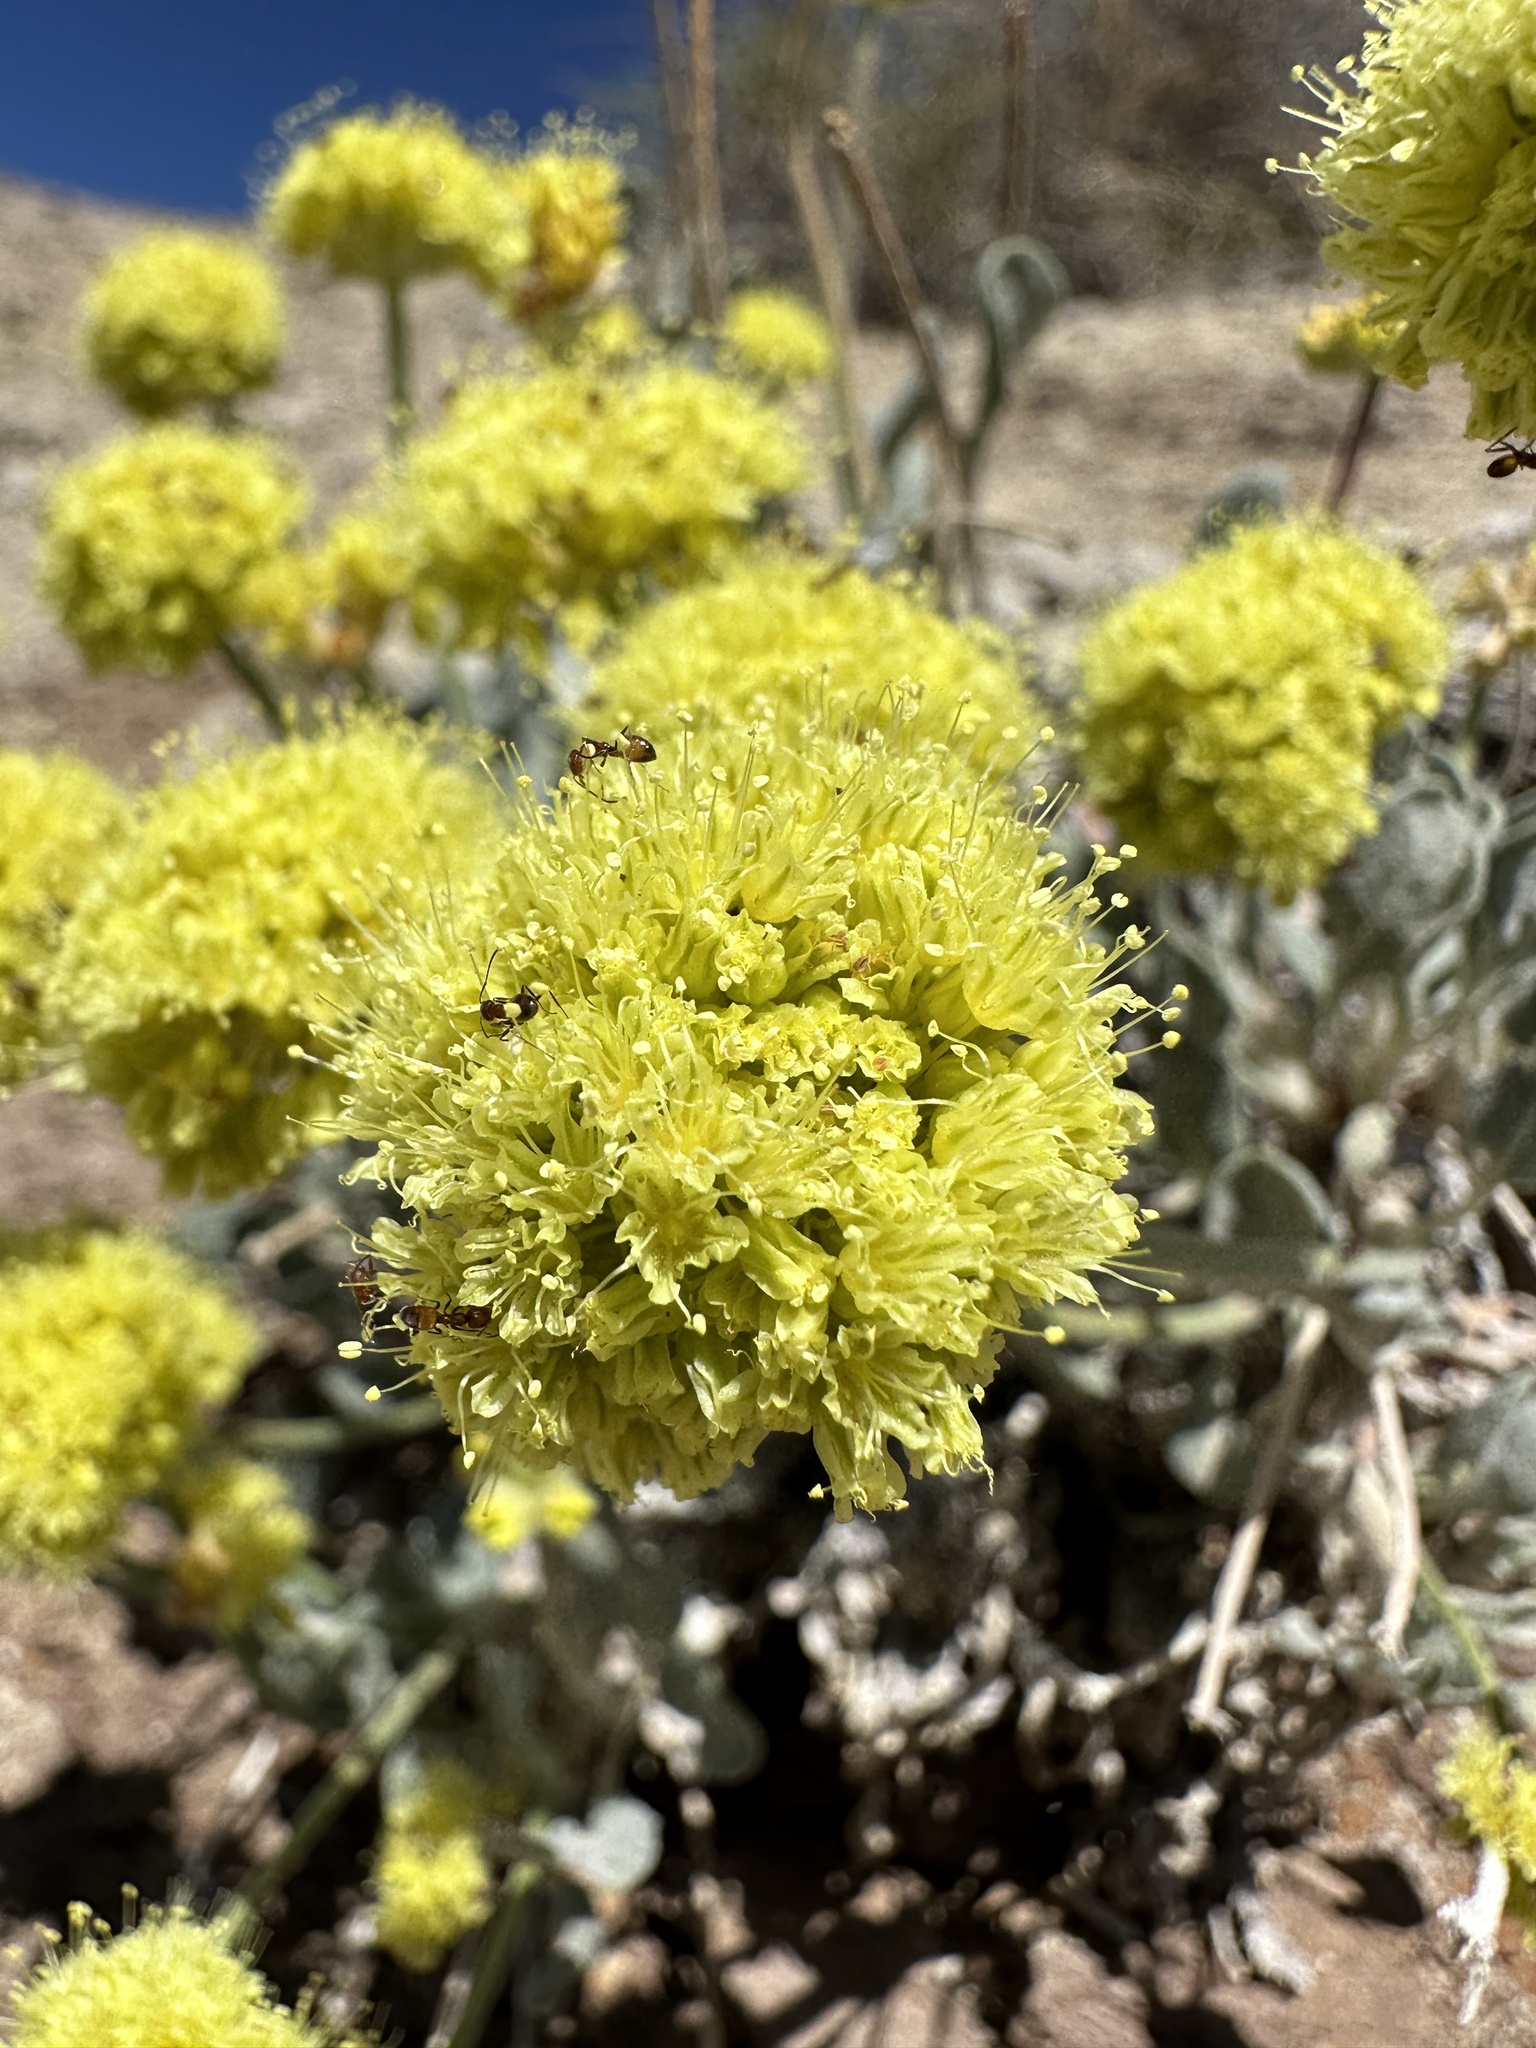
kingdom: Plantae
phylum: Tracheophyta
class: Magnoliopsida
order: Caryophyllales
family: Polygonaceae
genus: Eriogonum
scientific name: Eriogonum alexanderae
